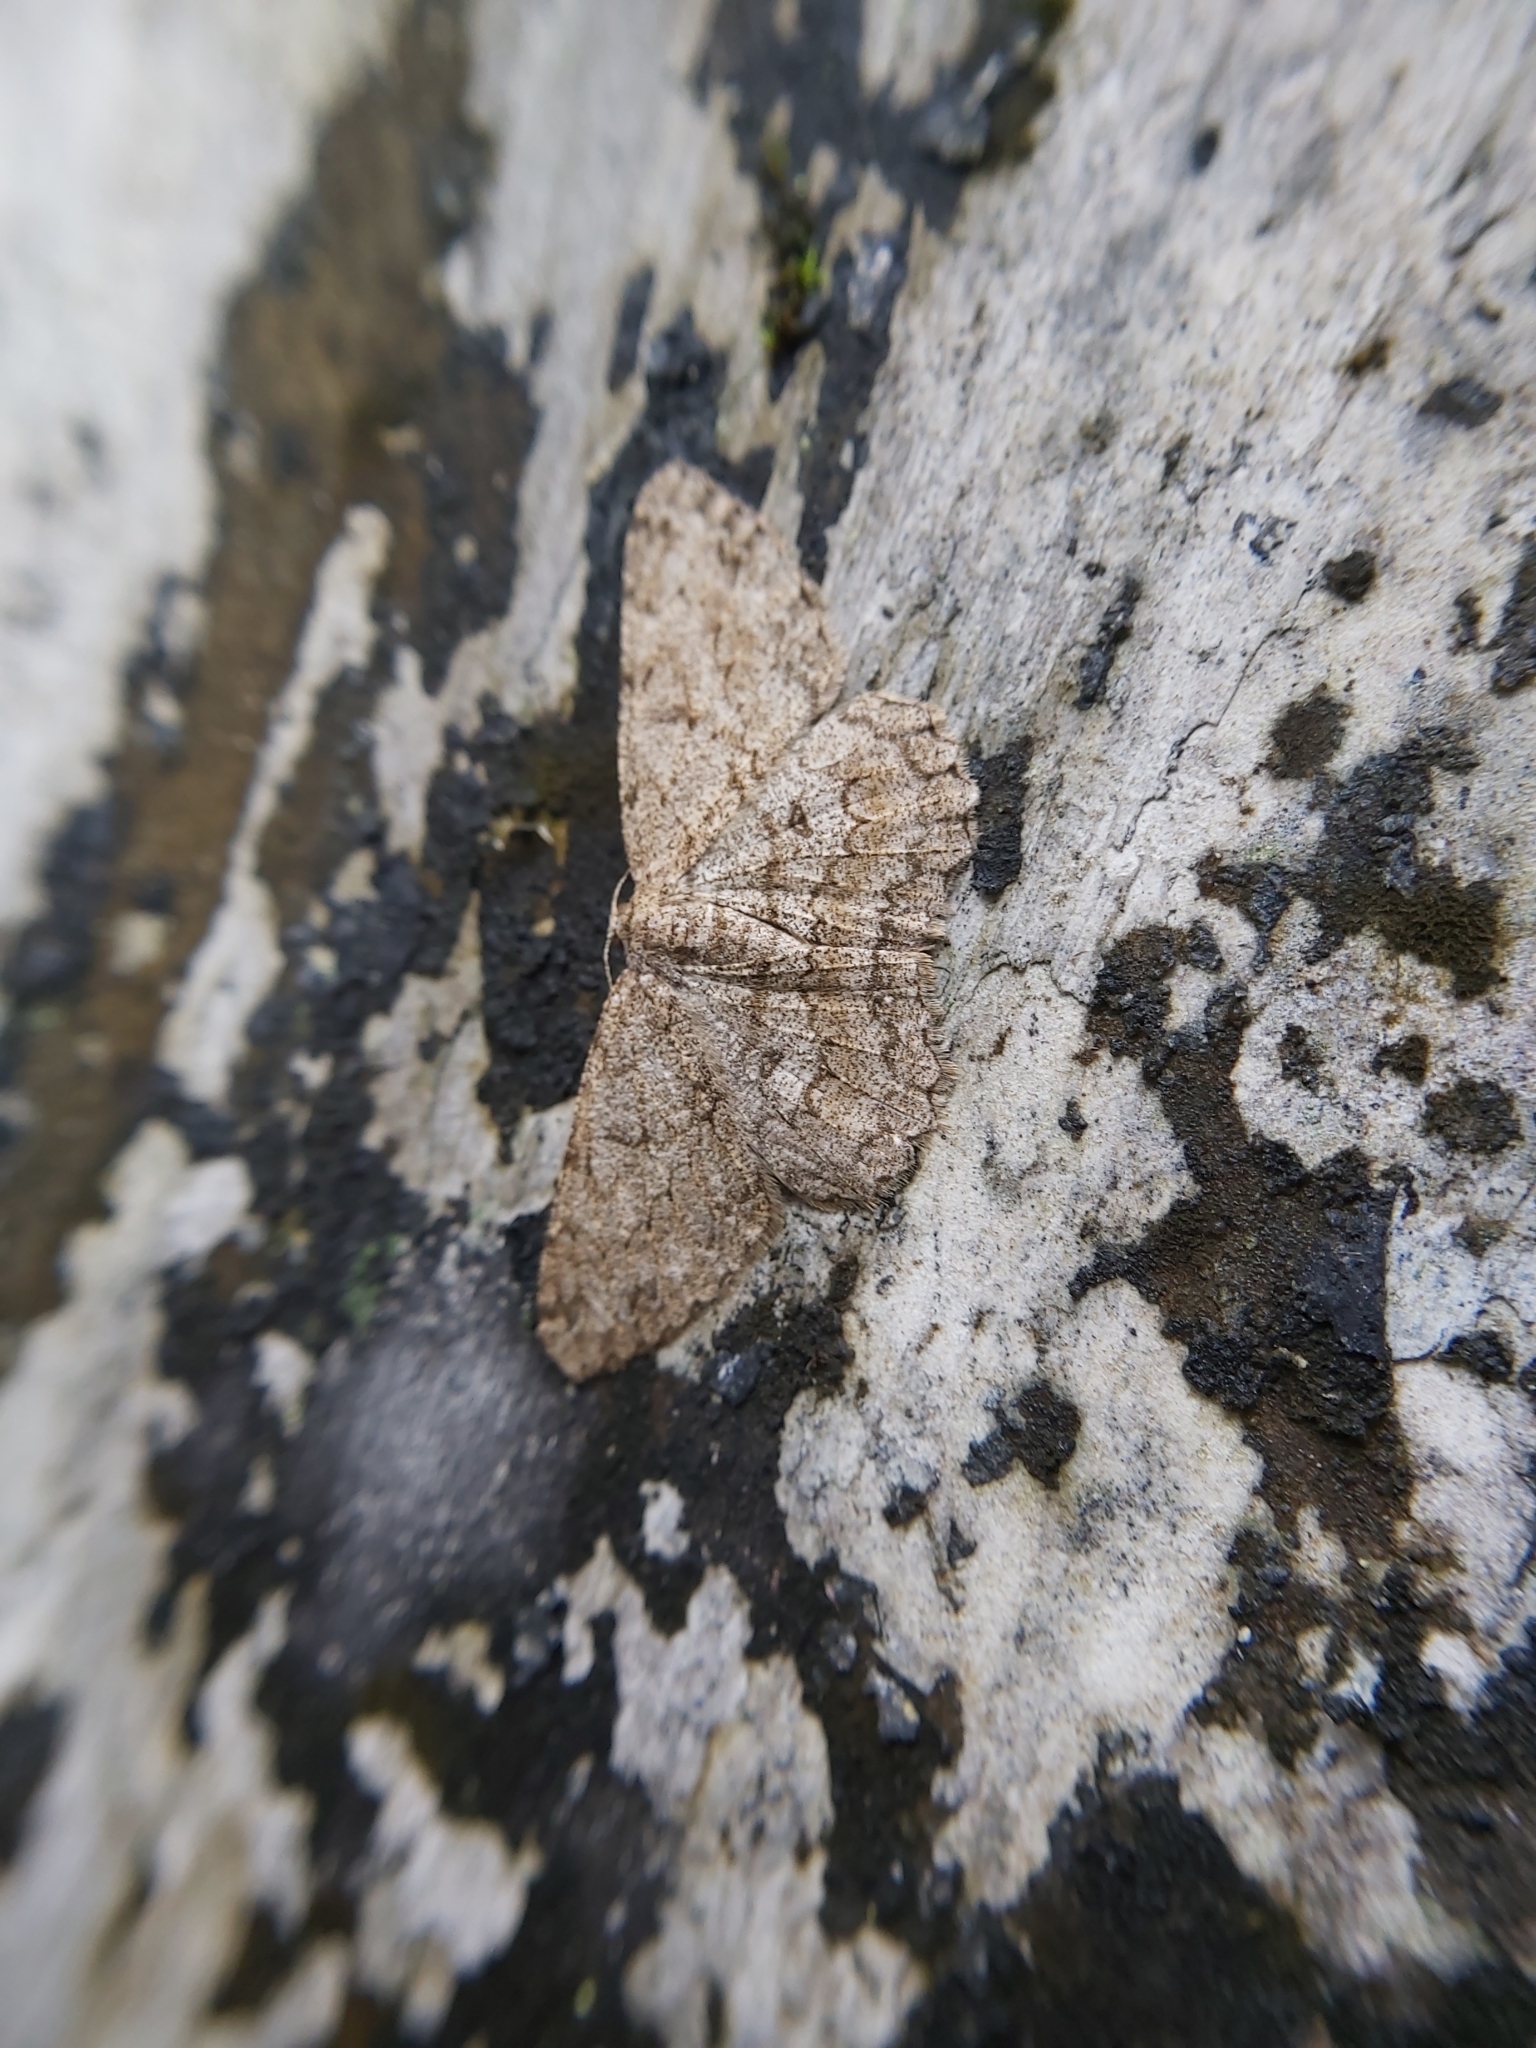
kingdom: Animalia
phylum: Arthropoda
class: Insecta
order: Lepidoptera
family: Geometridae
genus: Hypomecis
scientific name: Hypomecis ratotaria
